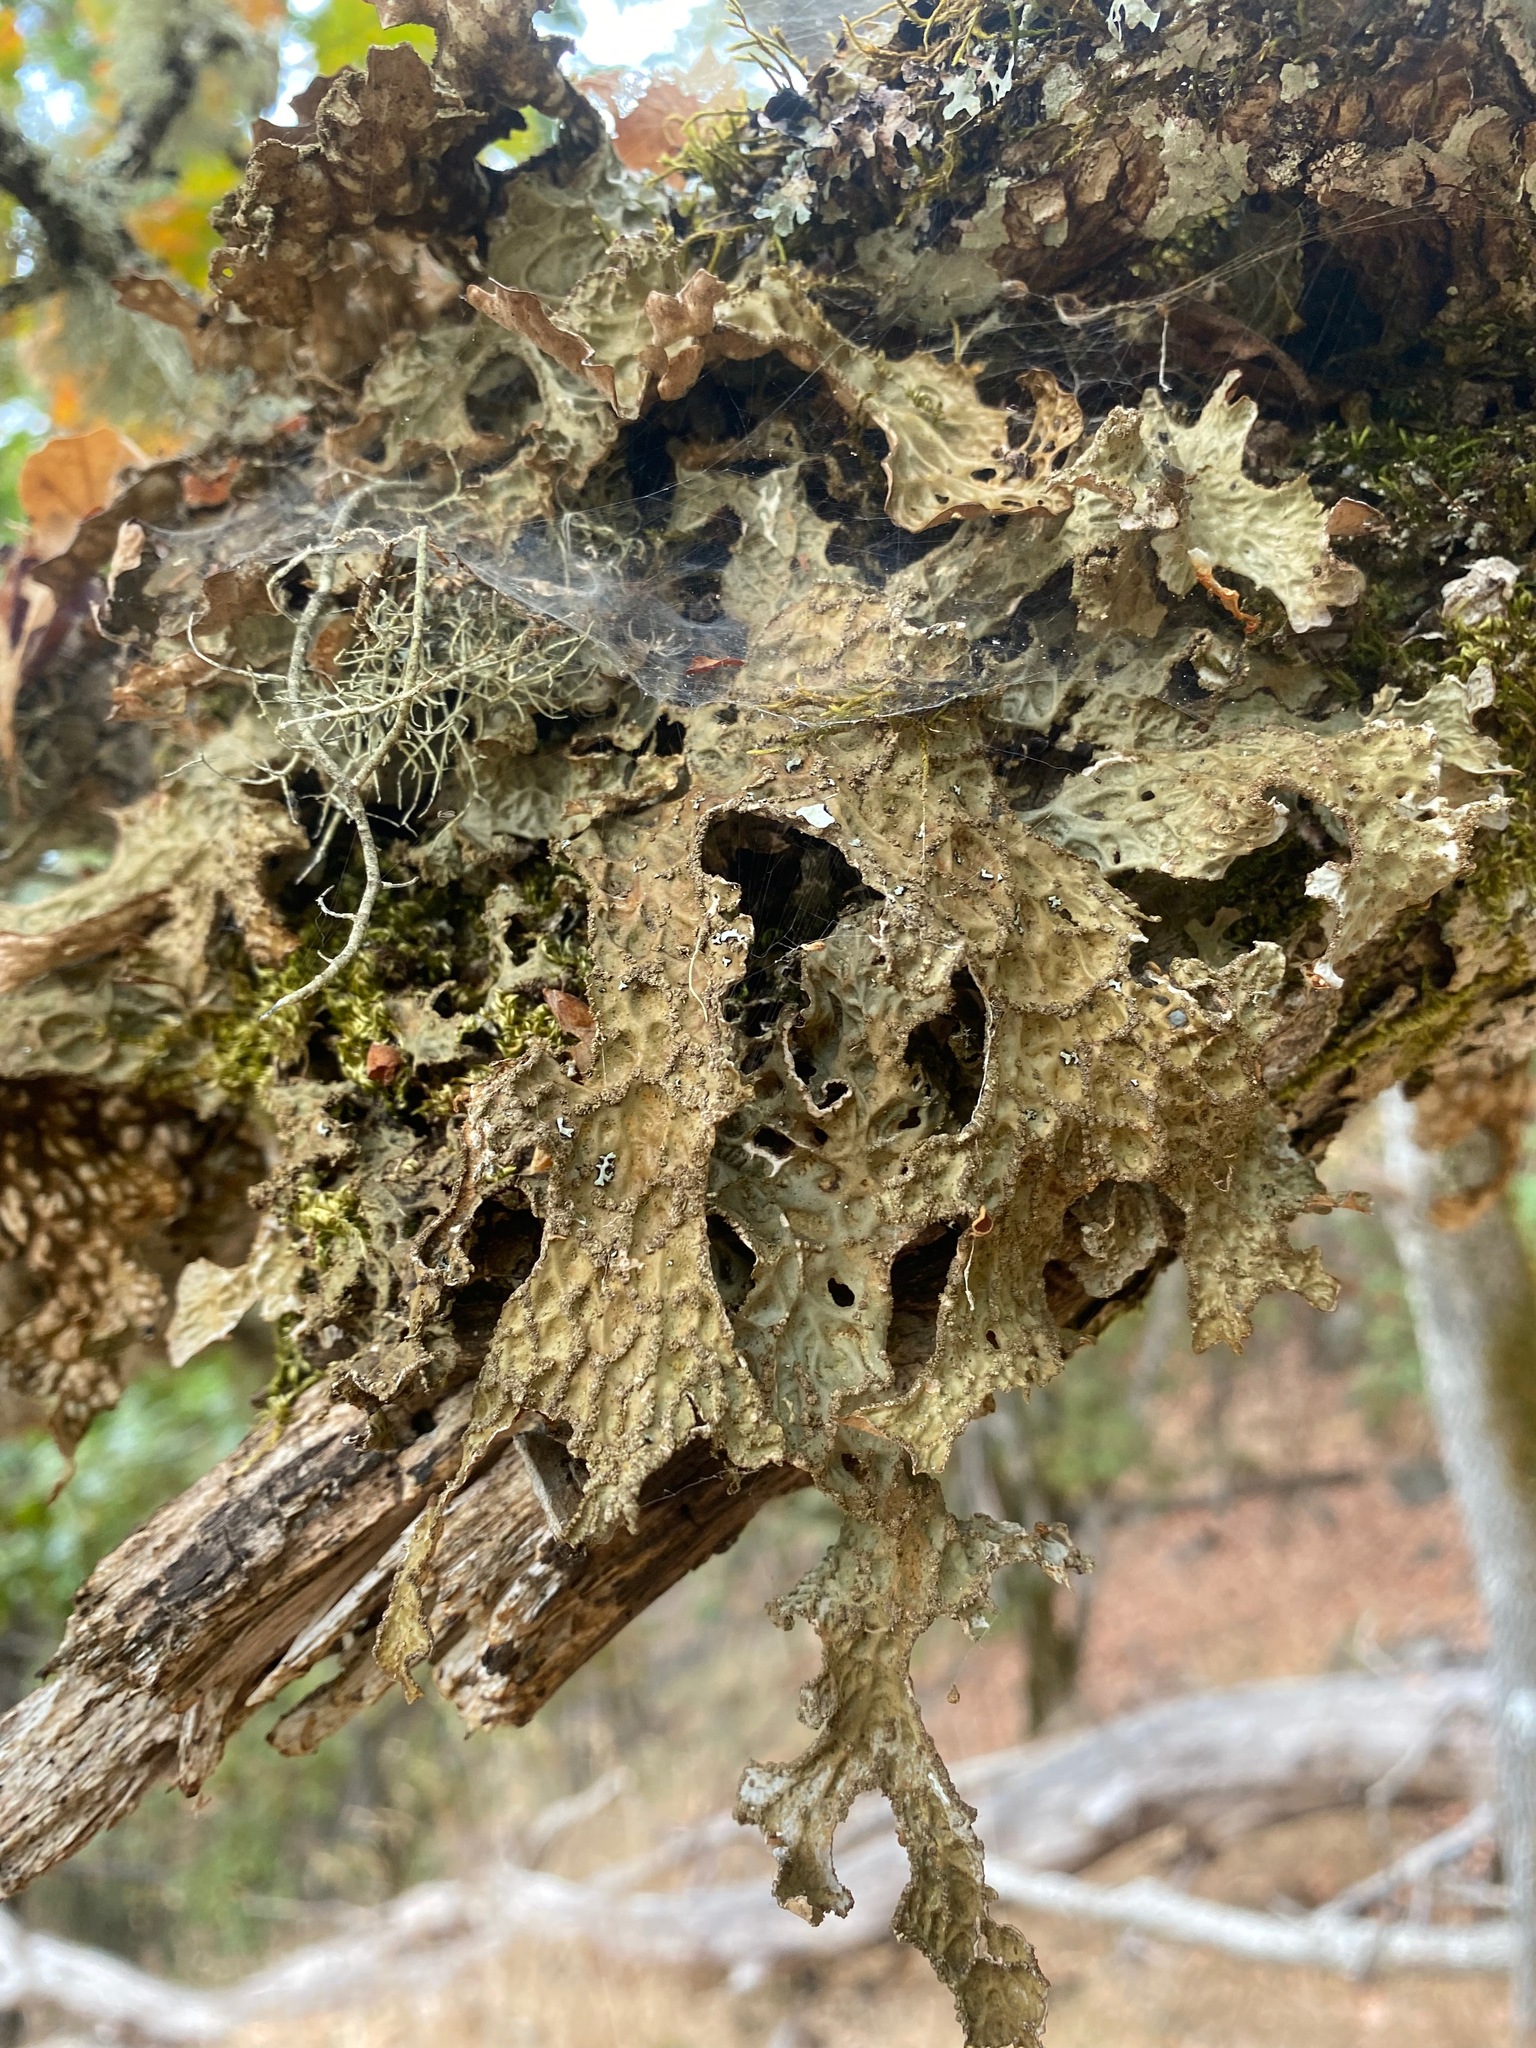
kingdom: Fungi
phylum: Ascomycota
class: Lecanoromycetes
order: Peltigerales
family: Lobariaceae
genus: Lobaria
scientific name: Lobaria pulmonaria
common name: Lungwort
